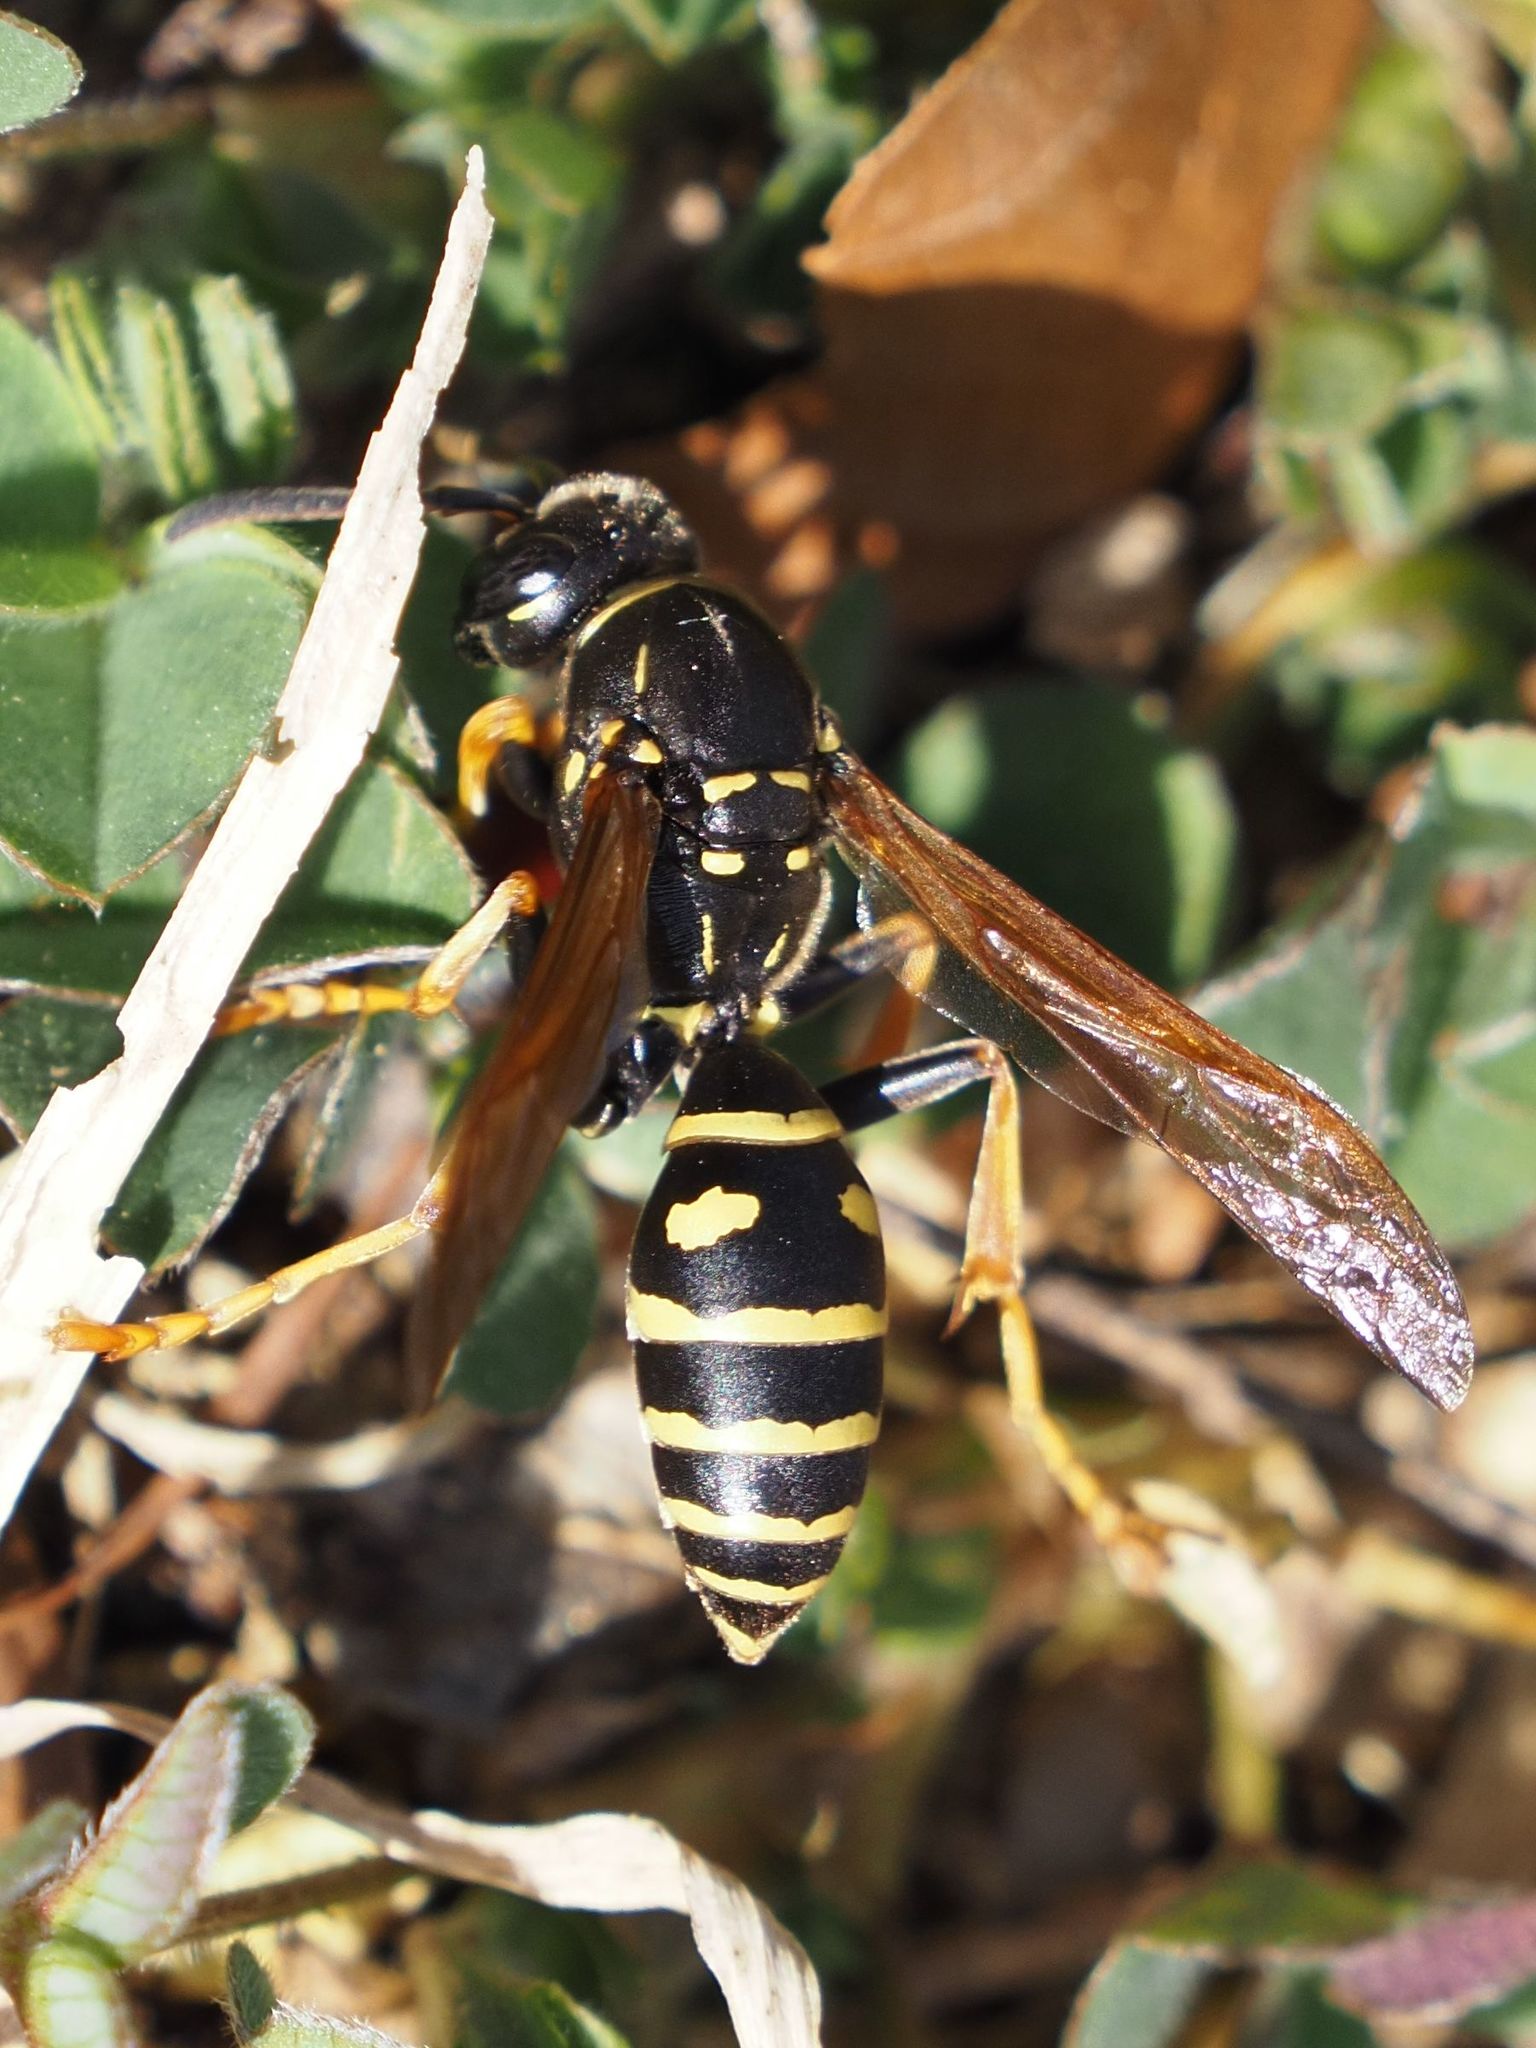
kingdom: Animalia
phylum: Arthropoda
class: Insecta
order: Hymenoptera
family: Eumenidae
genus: Polistes
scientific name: Polistes biglumis
